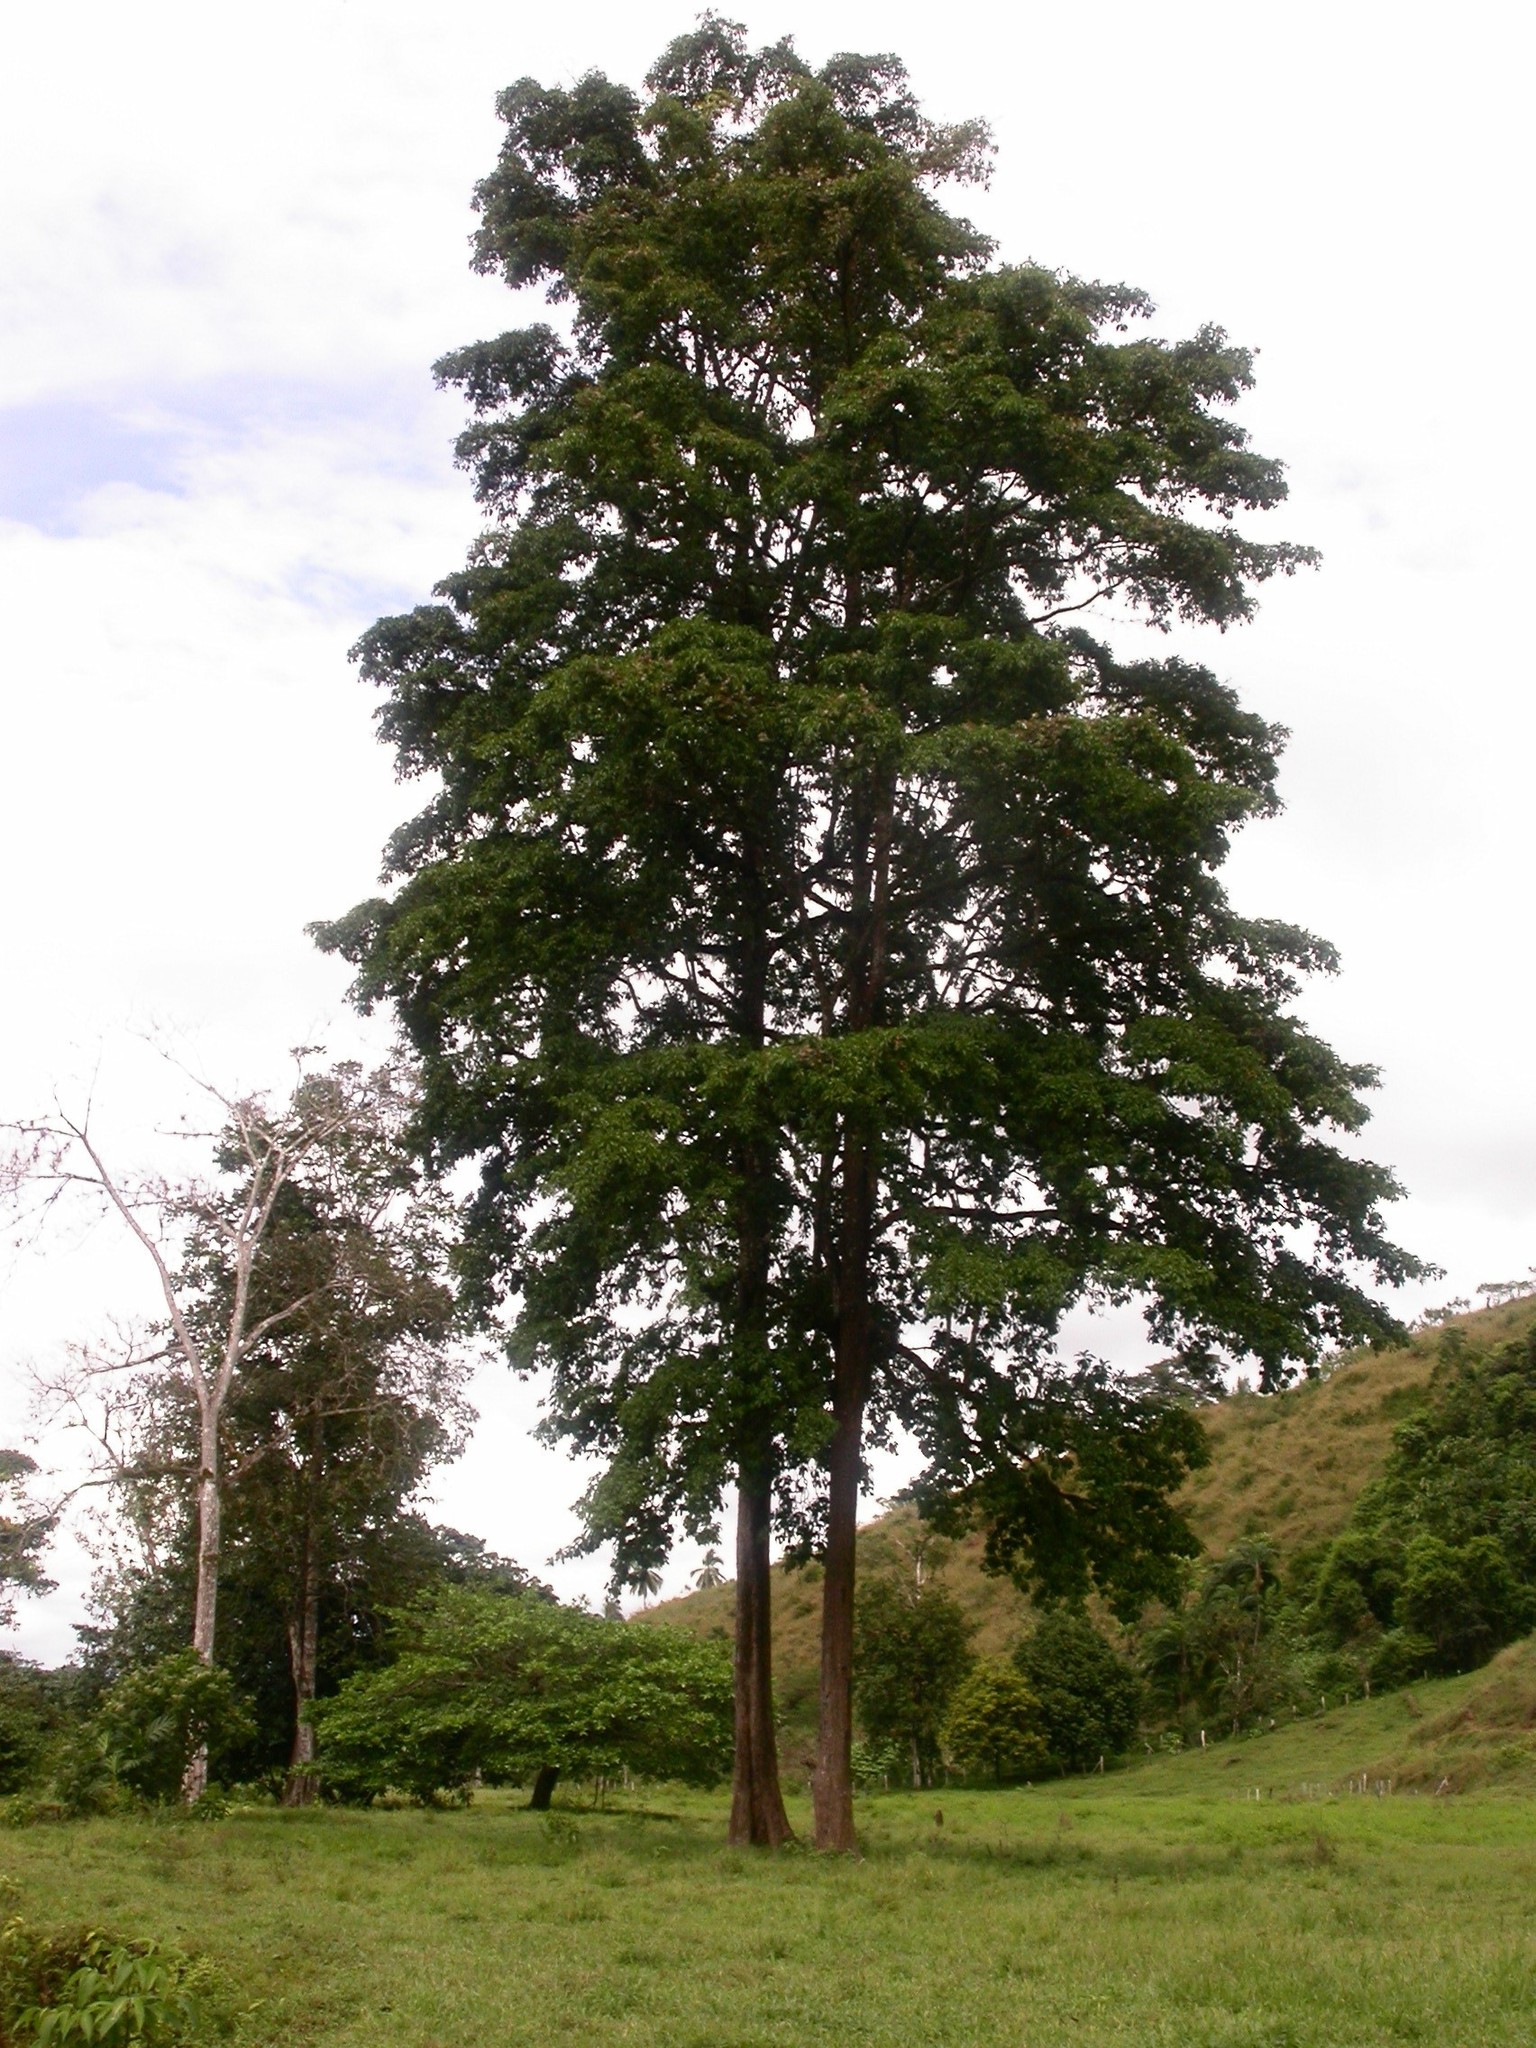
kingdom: Plantae
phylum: Tracheophyta
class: Magnoliopsida
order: Myrtales
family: Combretaceae
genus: Terminalia
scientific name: Terminalia amazonica
